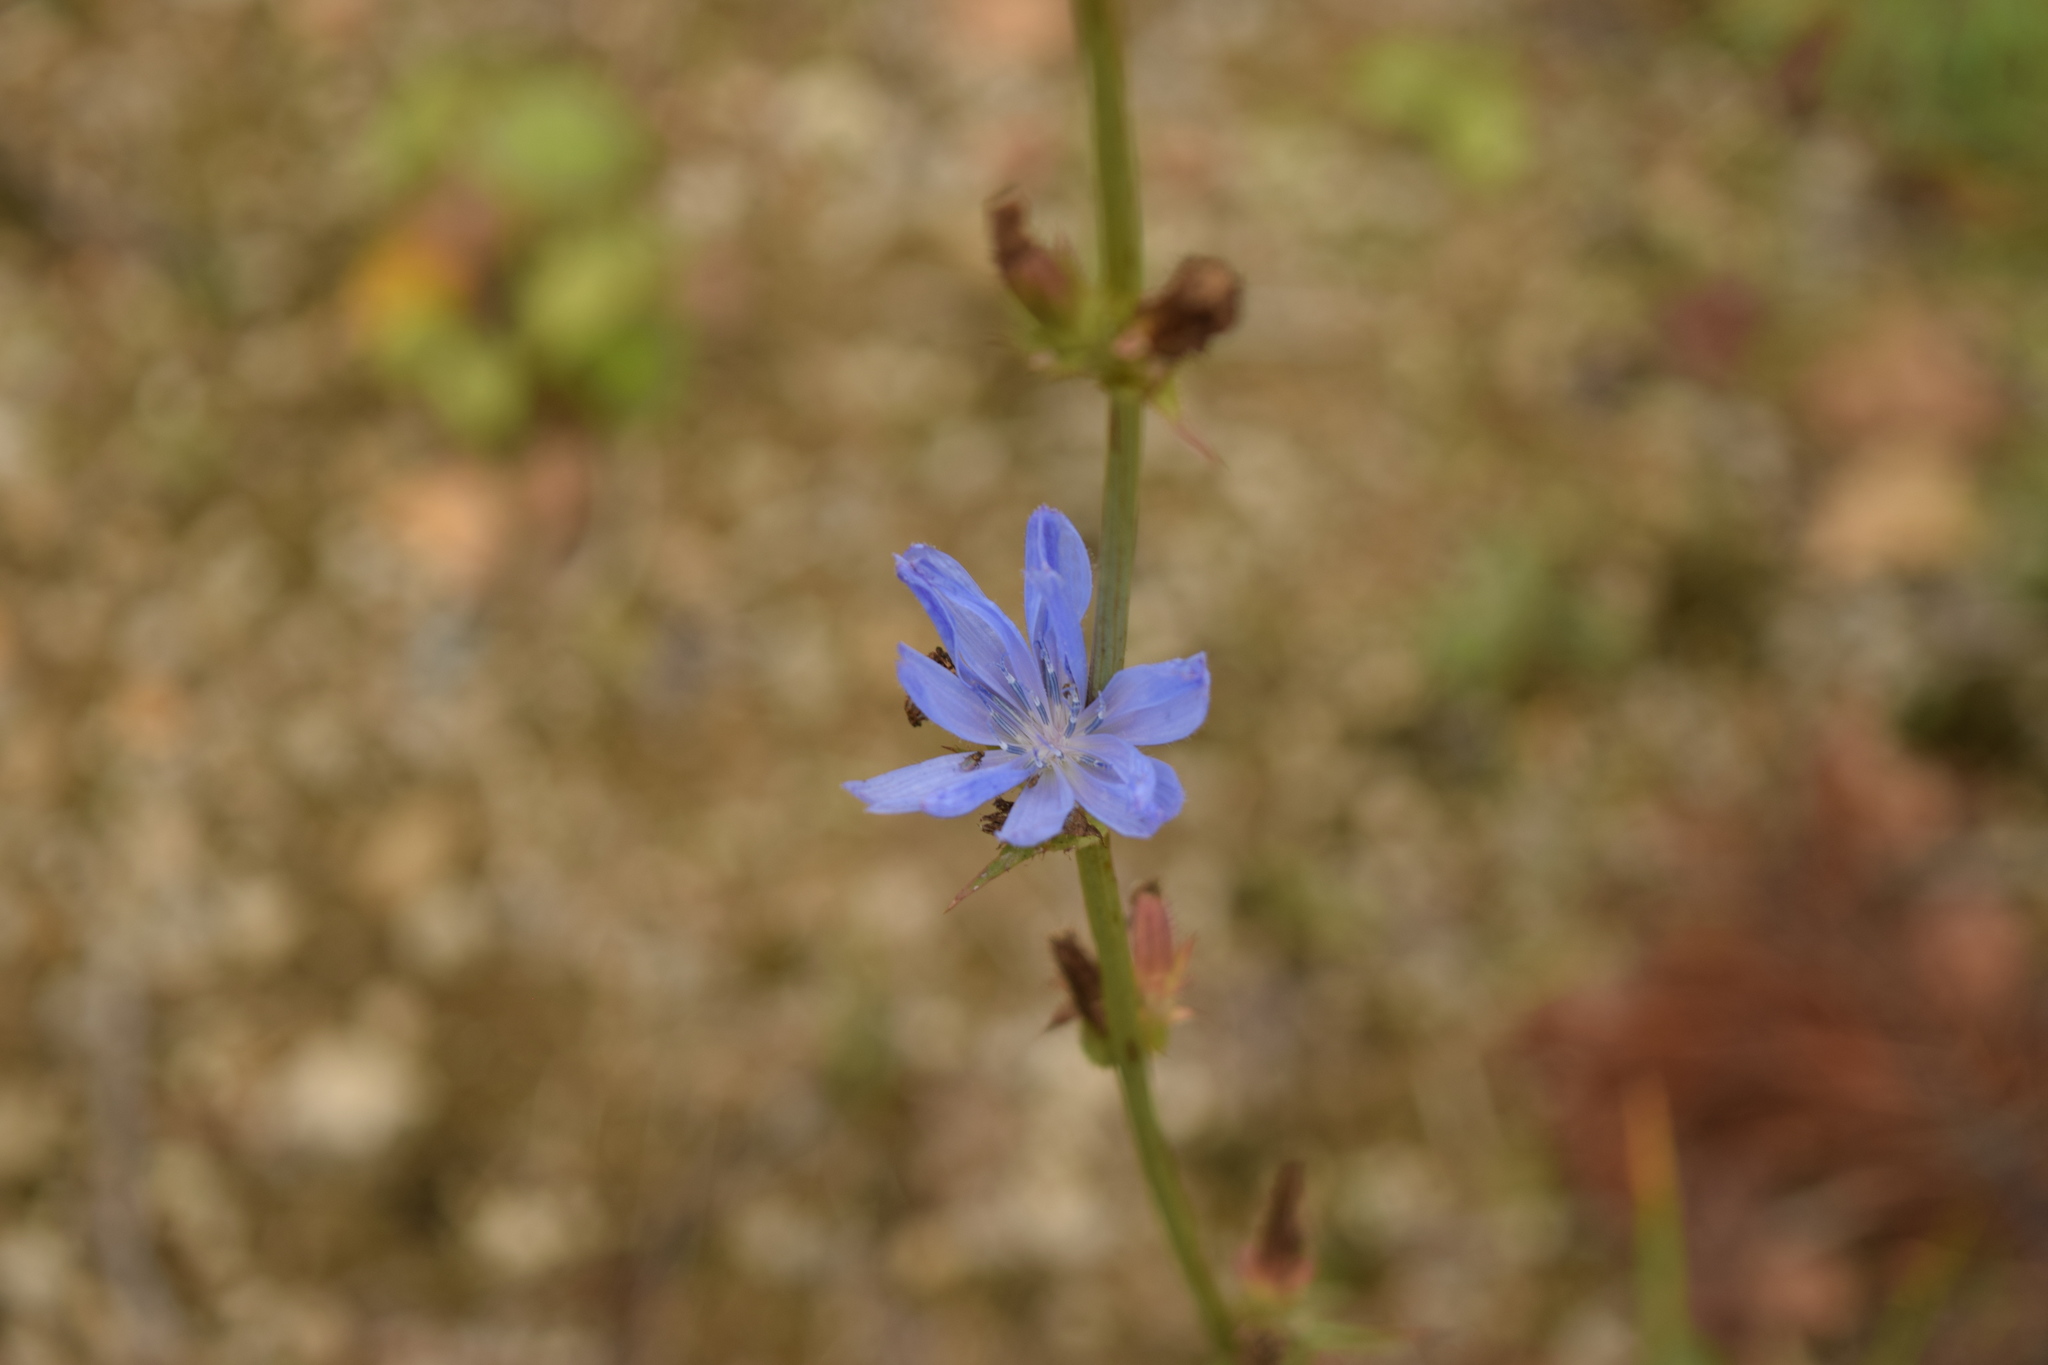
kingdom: Plantae
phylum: Tracheophyta
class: Magnoliopsida
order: Asterales
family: Asteraceae
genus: Cichorium
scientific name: Cichorium intybus
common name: Chicory
